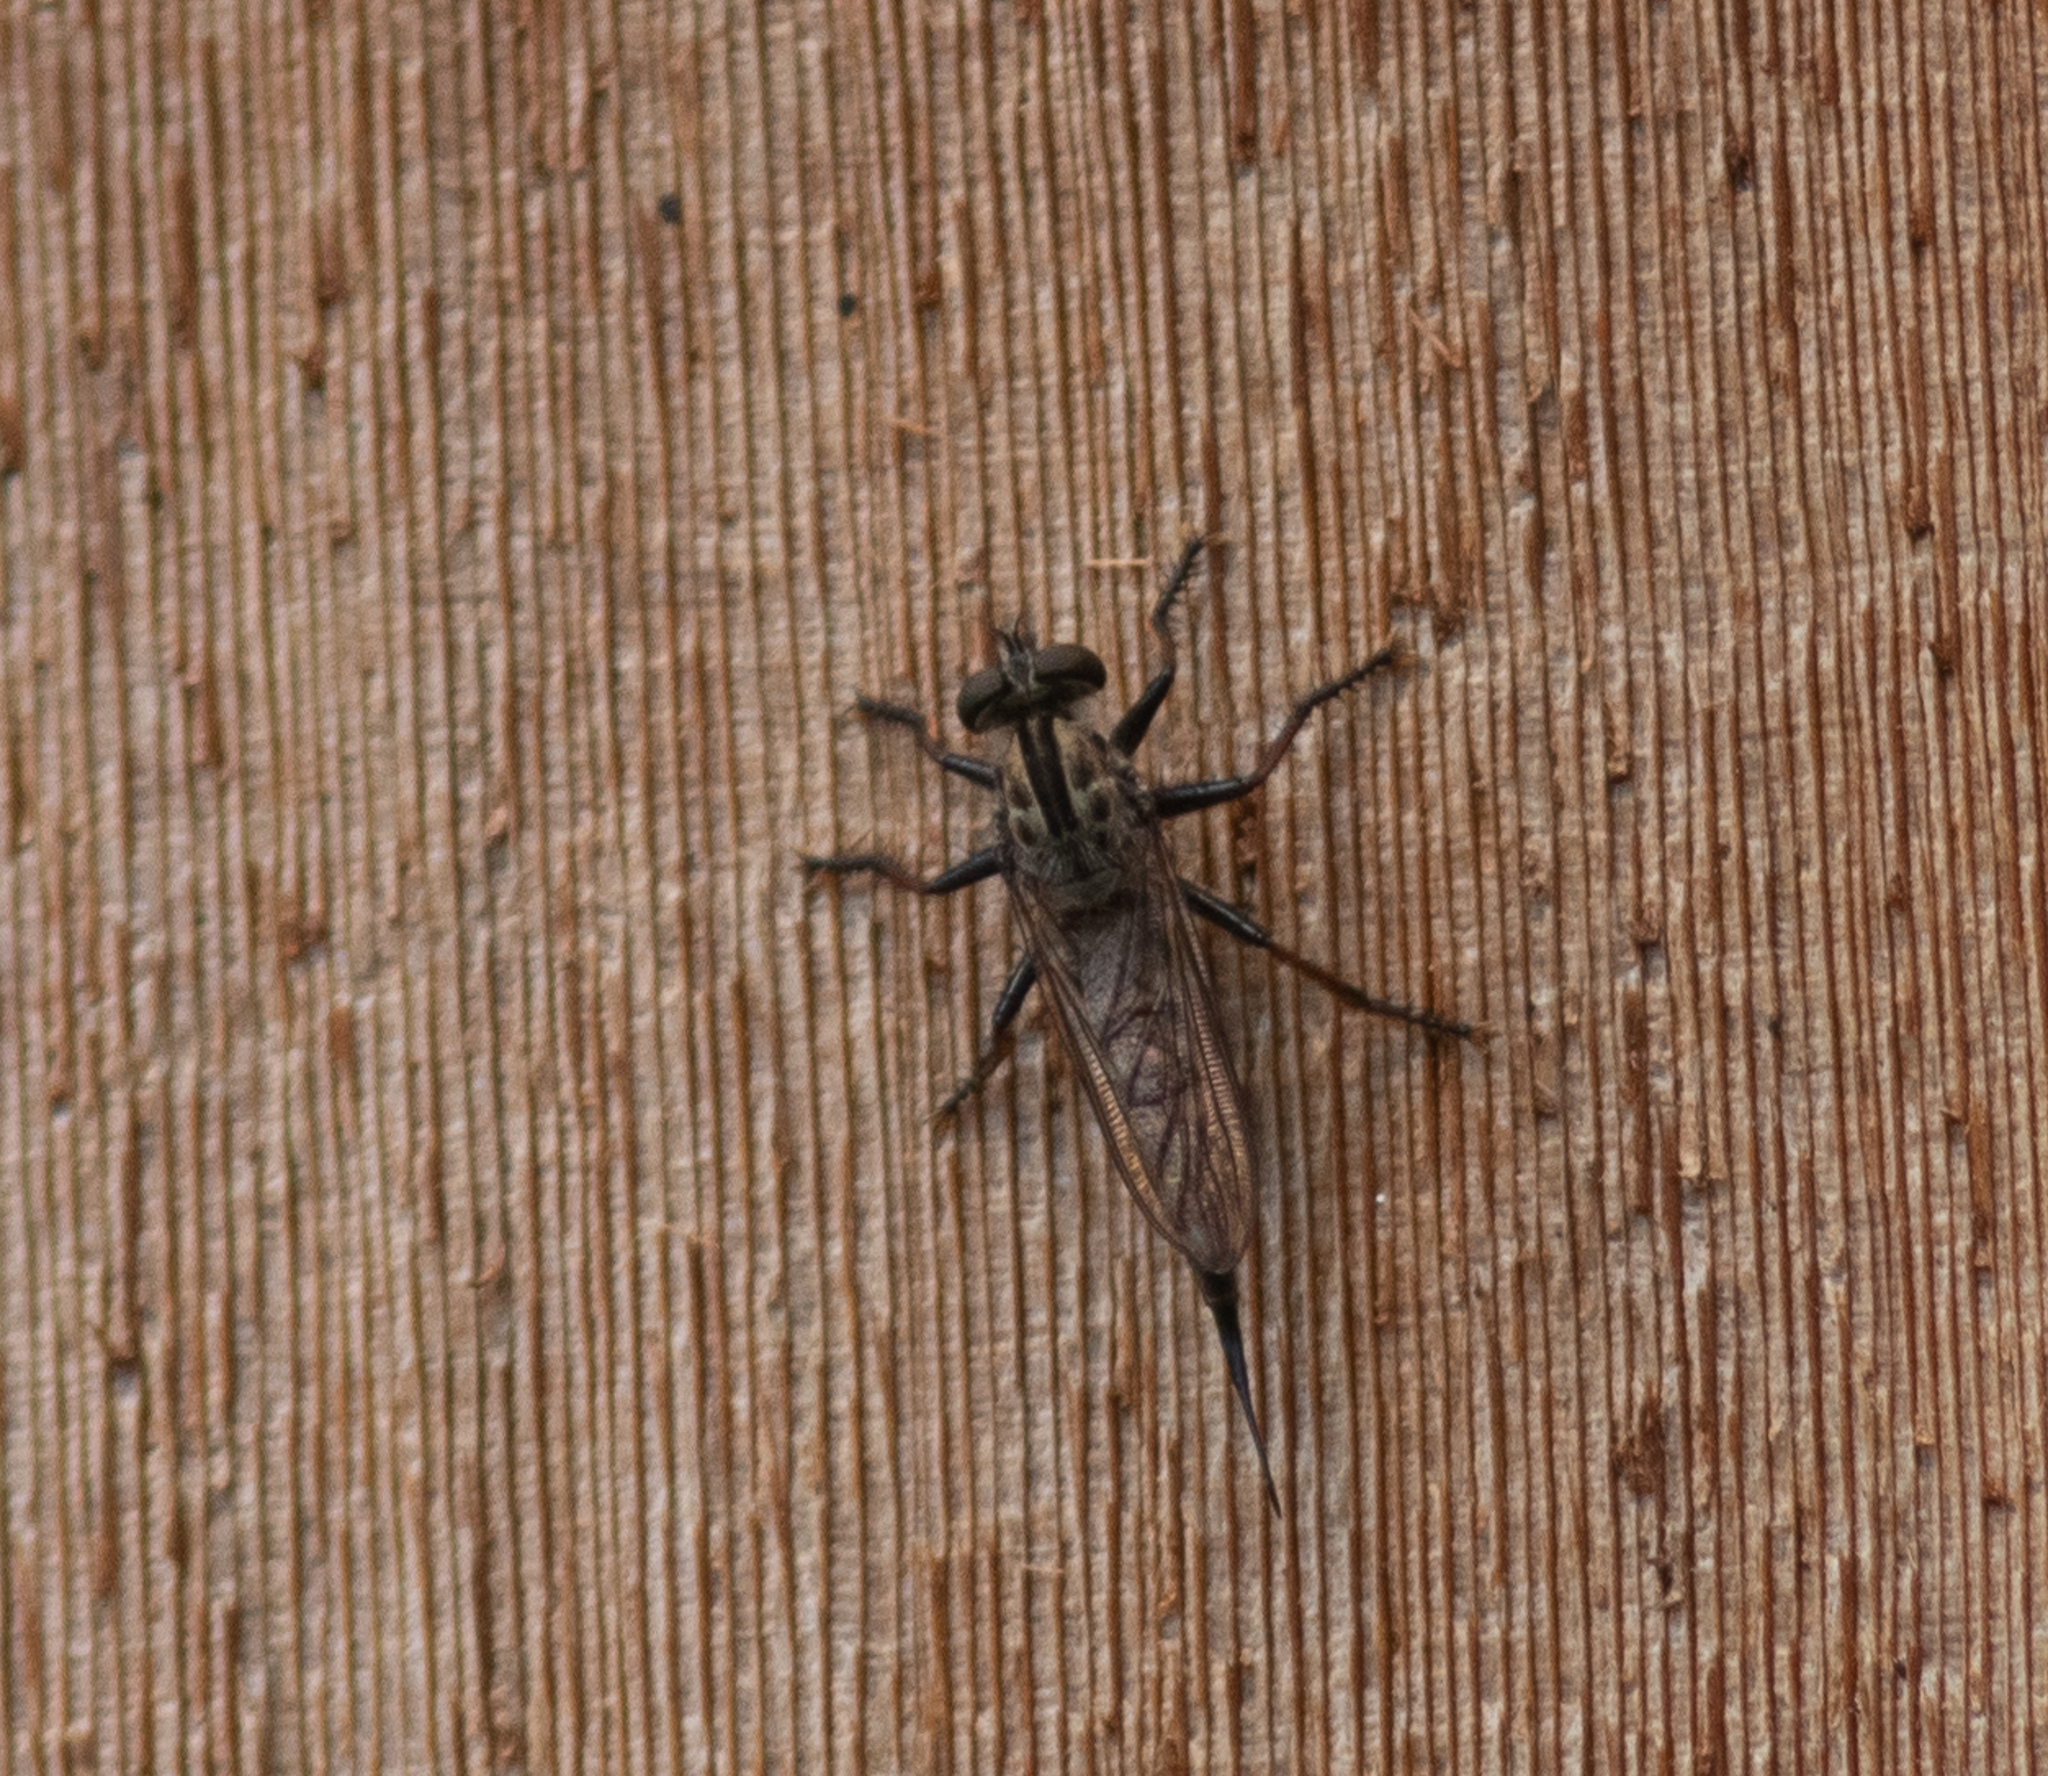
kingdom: Animalia
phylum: Arthropoda
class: Insecta
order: Diptera
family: Asilidae
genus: Efferia
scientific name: Efferia aestuans
